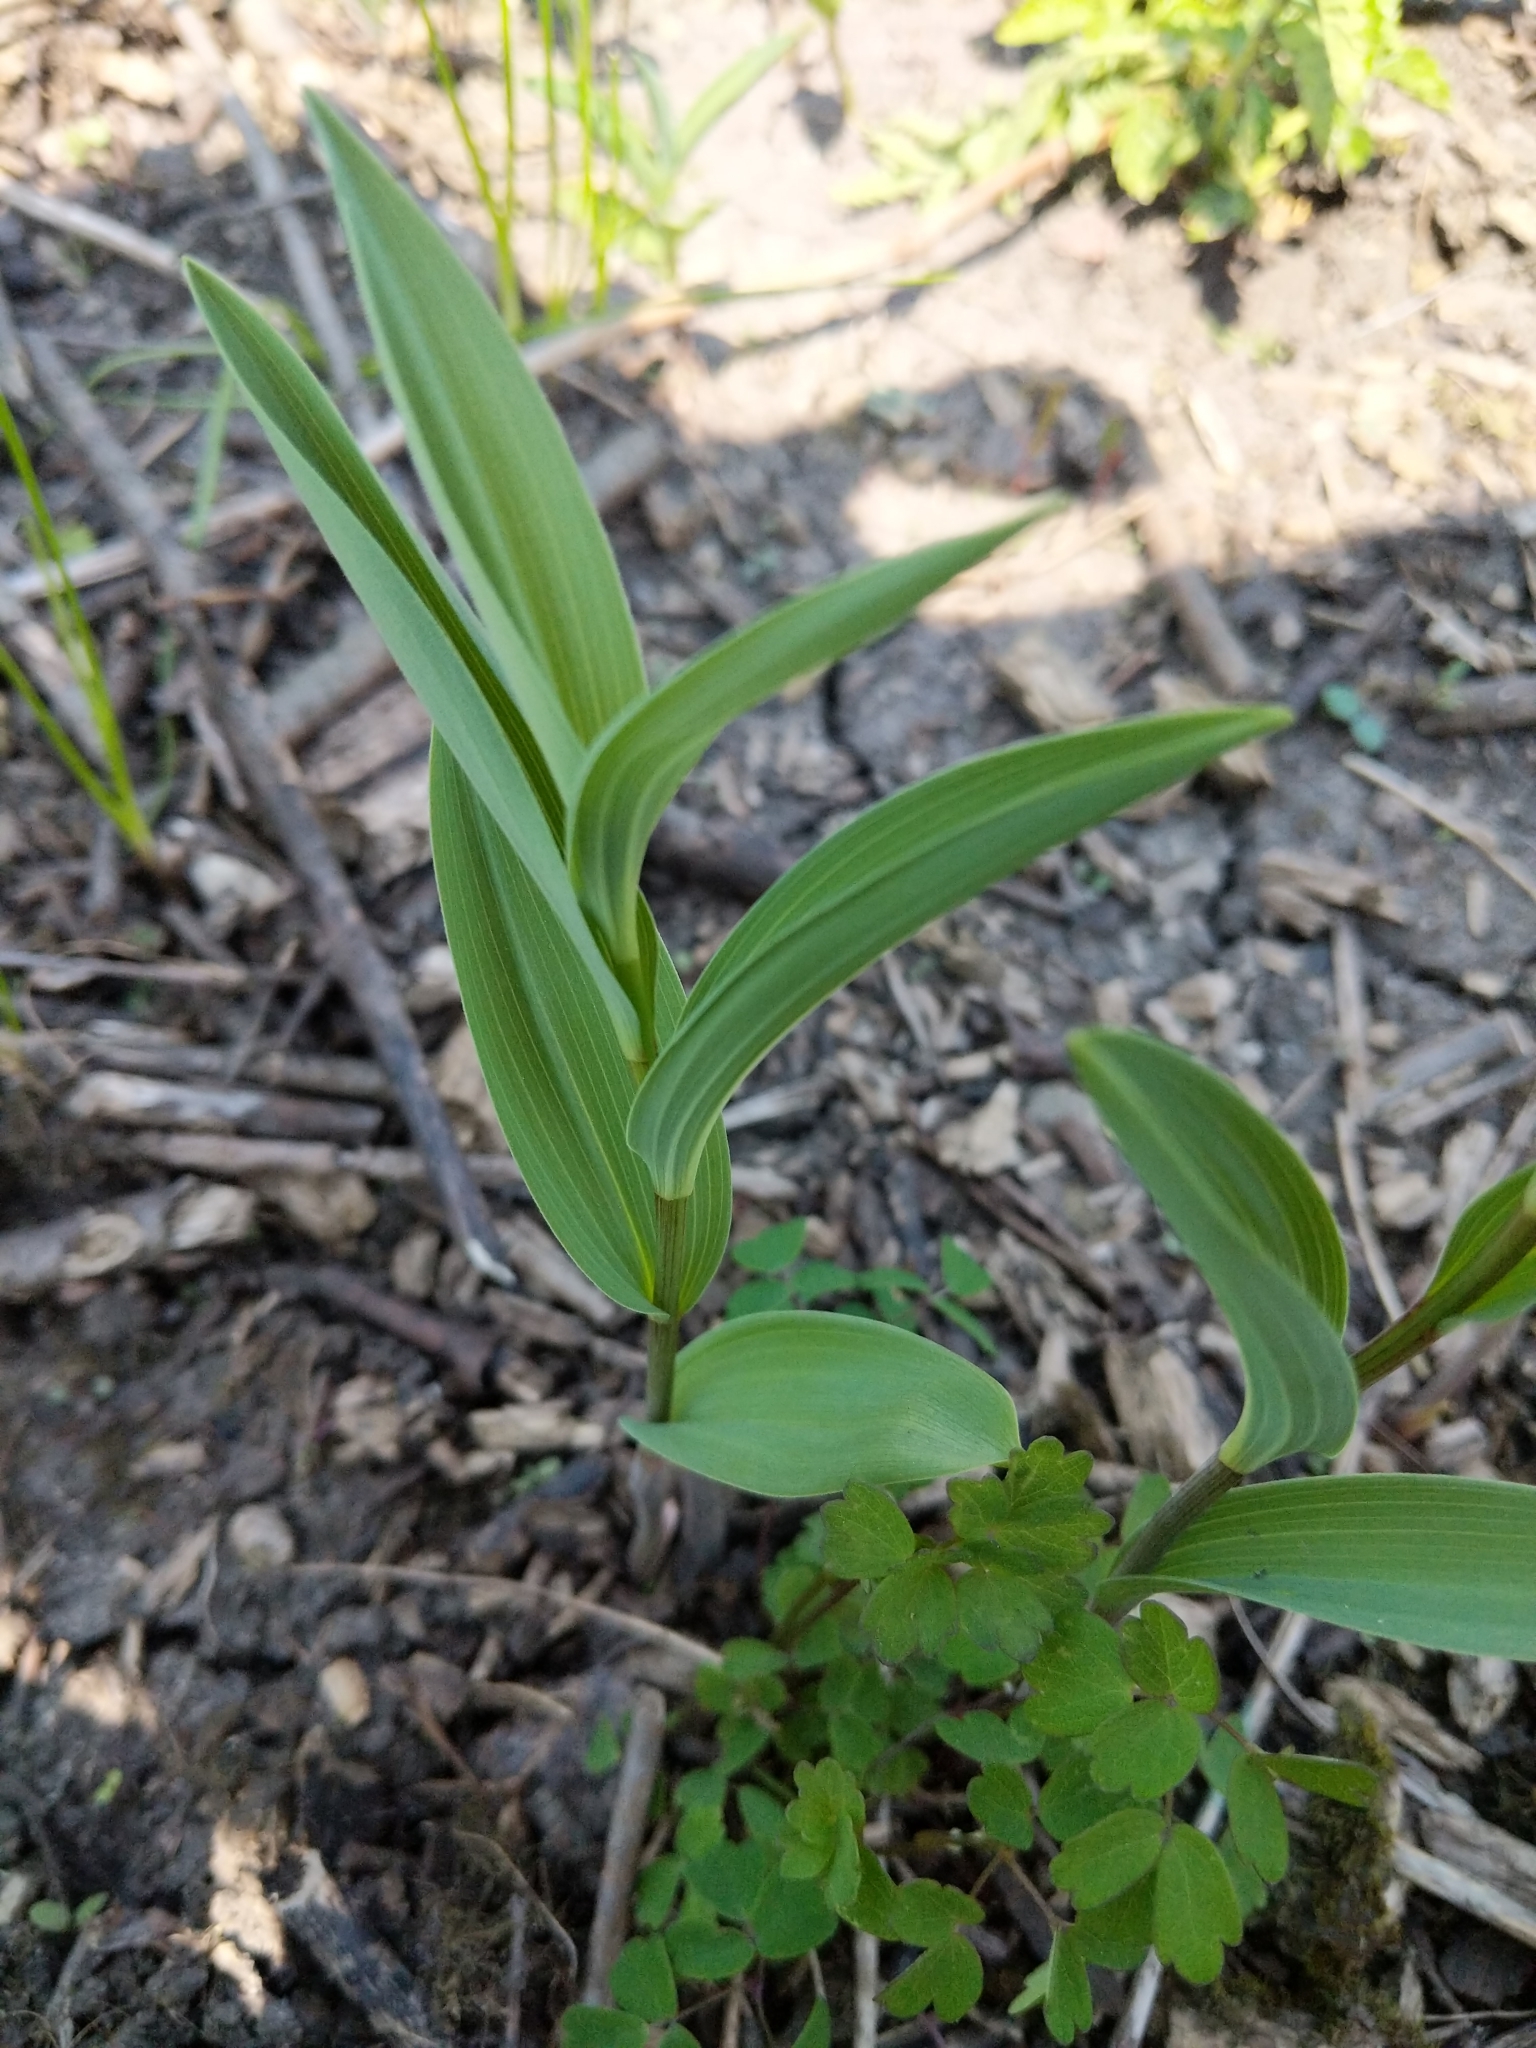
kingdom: Plantae
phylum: Tracheophyta
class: Liliopsida
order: Asparagales
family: Asparagaceae
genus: Maianthemum
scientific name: Maianthemum stellatum
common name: Little false solomon's seal
